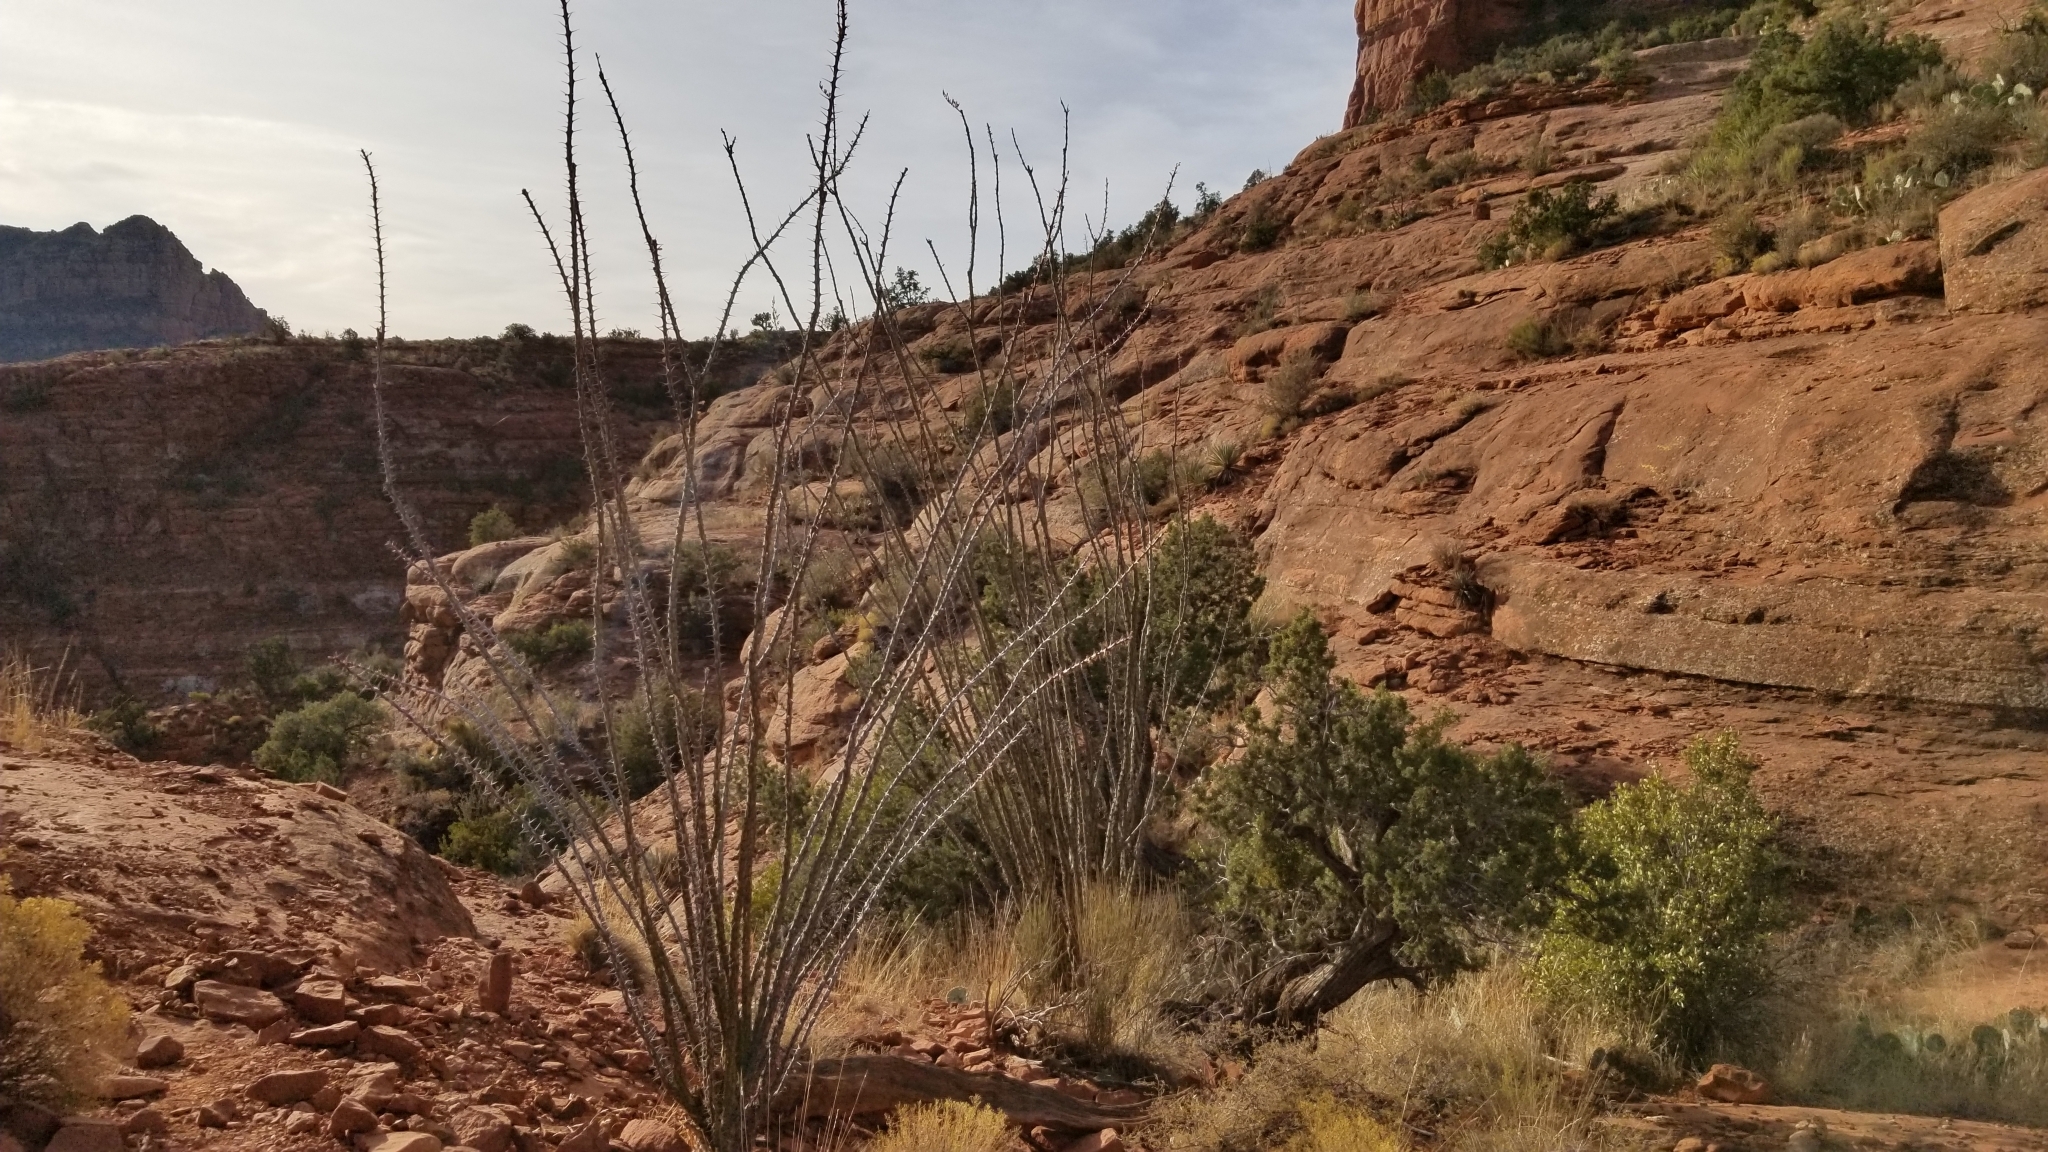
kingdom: Plantae
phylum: Tracheophyta
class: Magnoliopsida
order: Ericales
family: Fouquieriaceae
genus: Fouquieria
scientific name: Fouquieria splendens
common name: Vine-cactus
